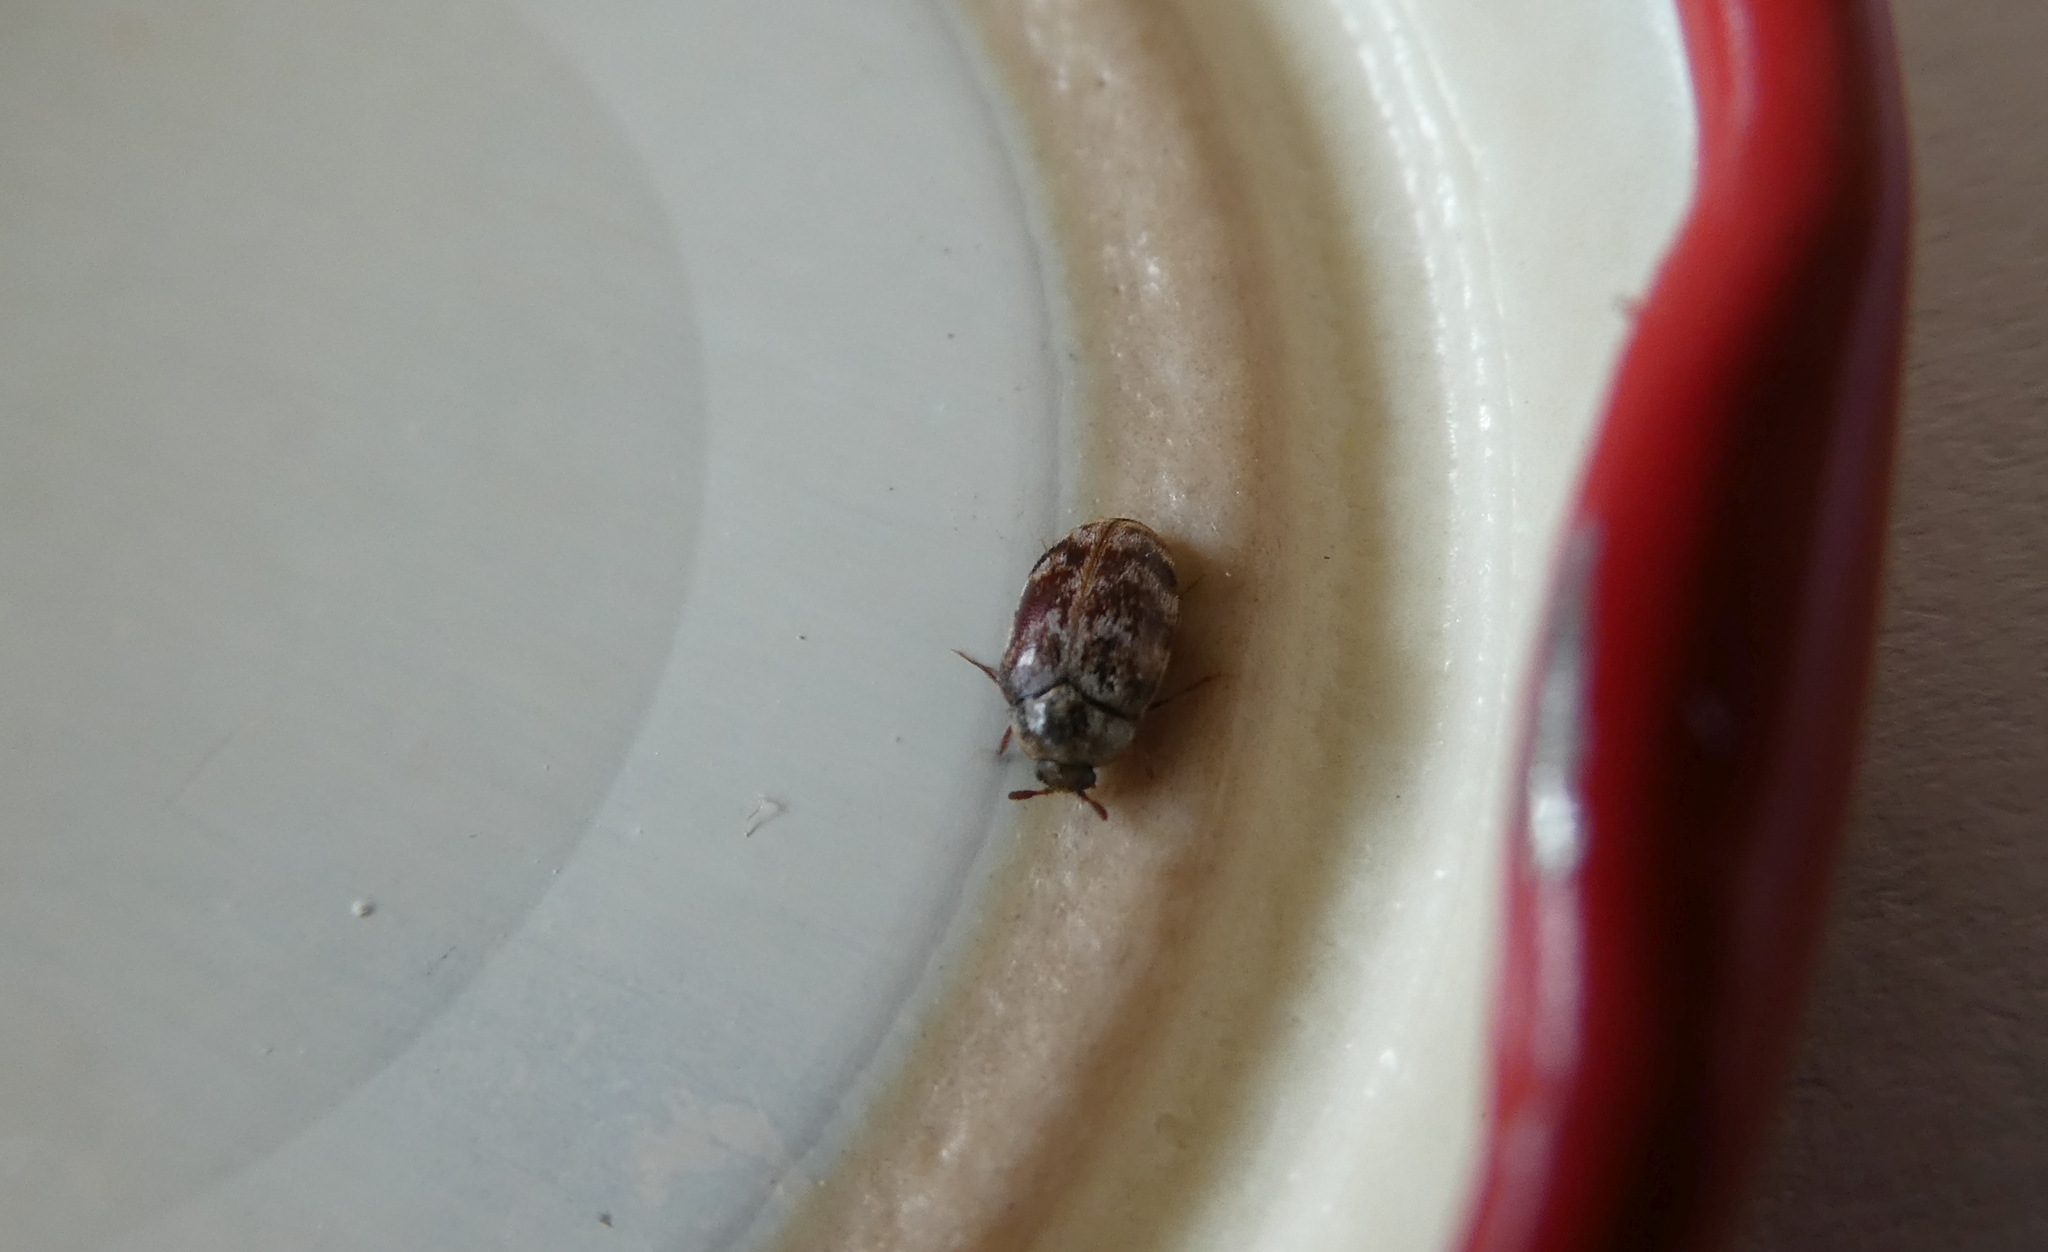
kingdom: Animalia
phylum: Arthropoda
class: Insecta
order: Coleoptera
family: Dermestidae
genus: Anthrenocerus
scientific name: Anthrenocerus australis
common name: Australian carpet beetle
